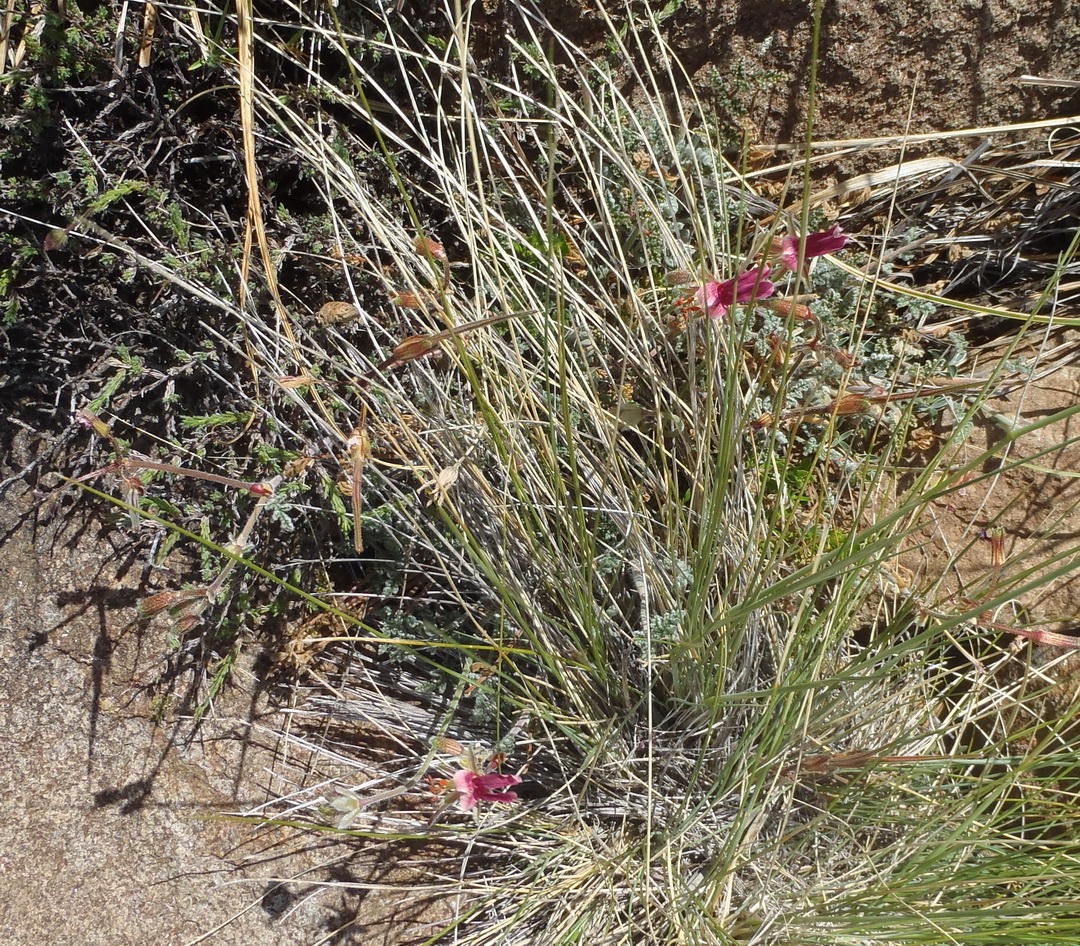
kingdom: Plantae
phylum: Tracheophyta
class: Magnoliopsida
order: Geraniales
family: Geraniaceae
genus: Pelargonium
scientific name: Pelargonium griseum
